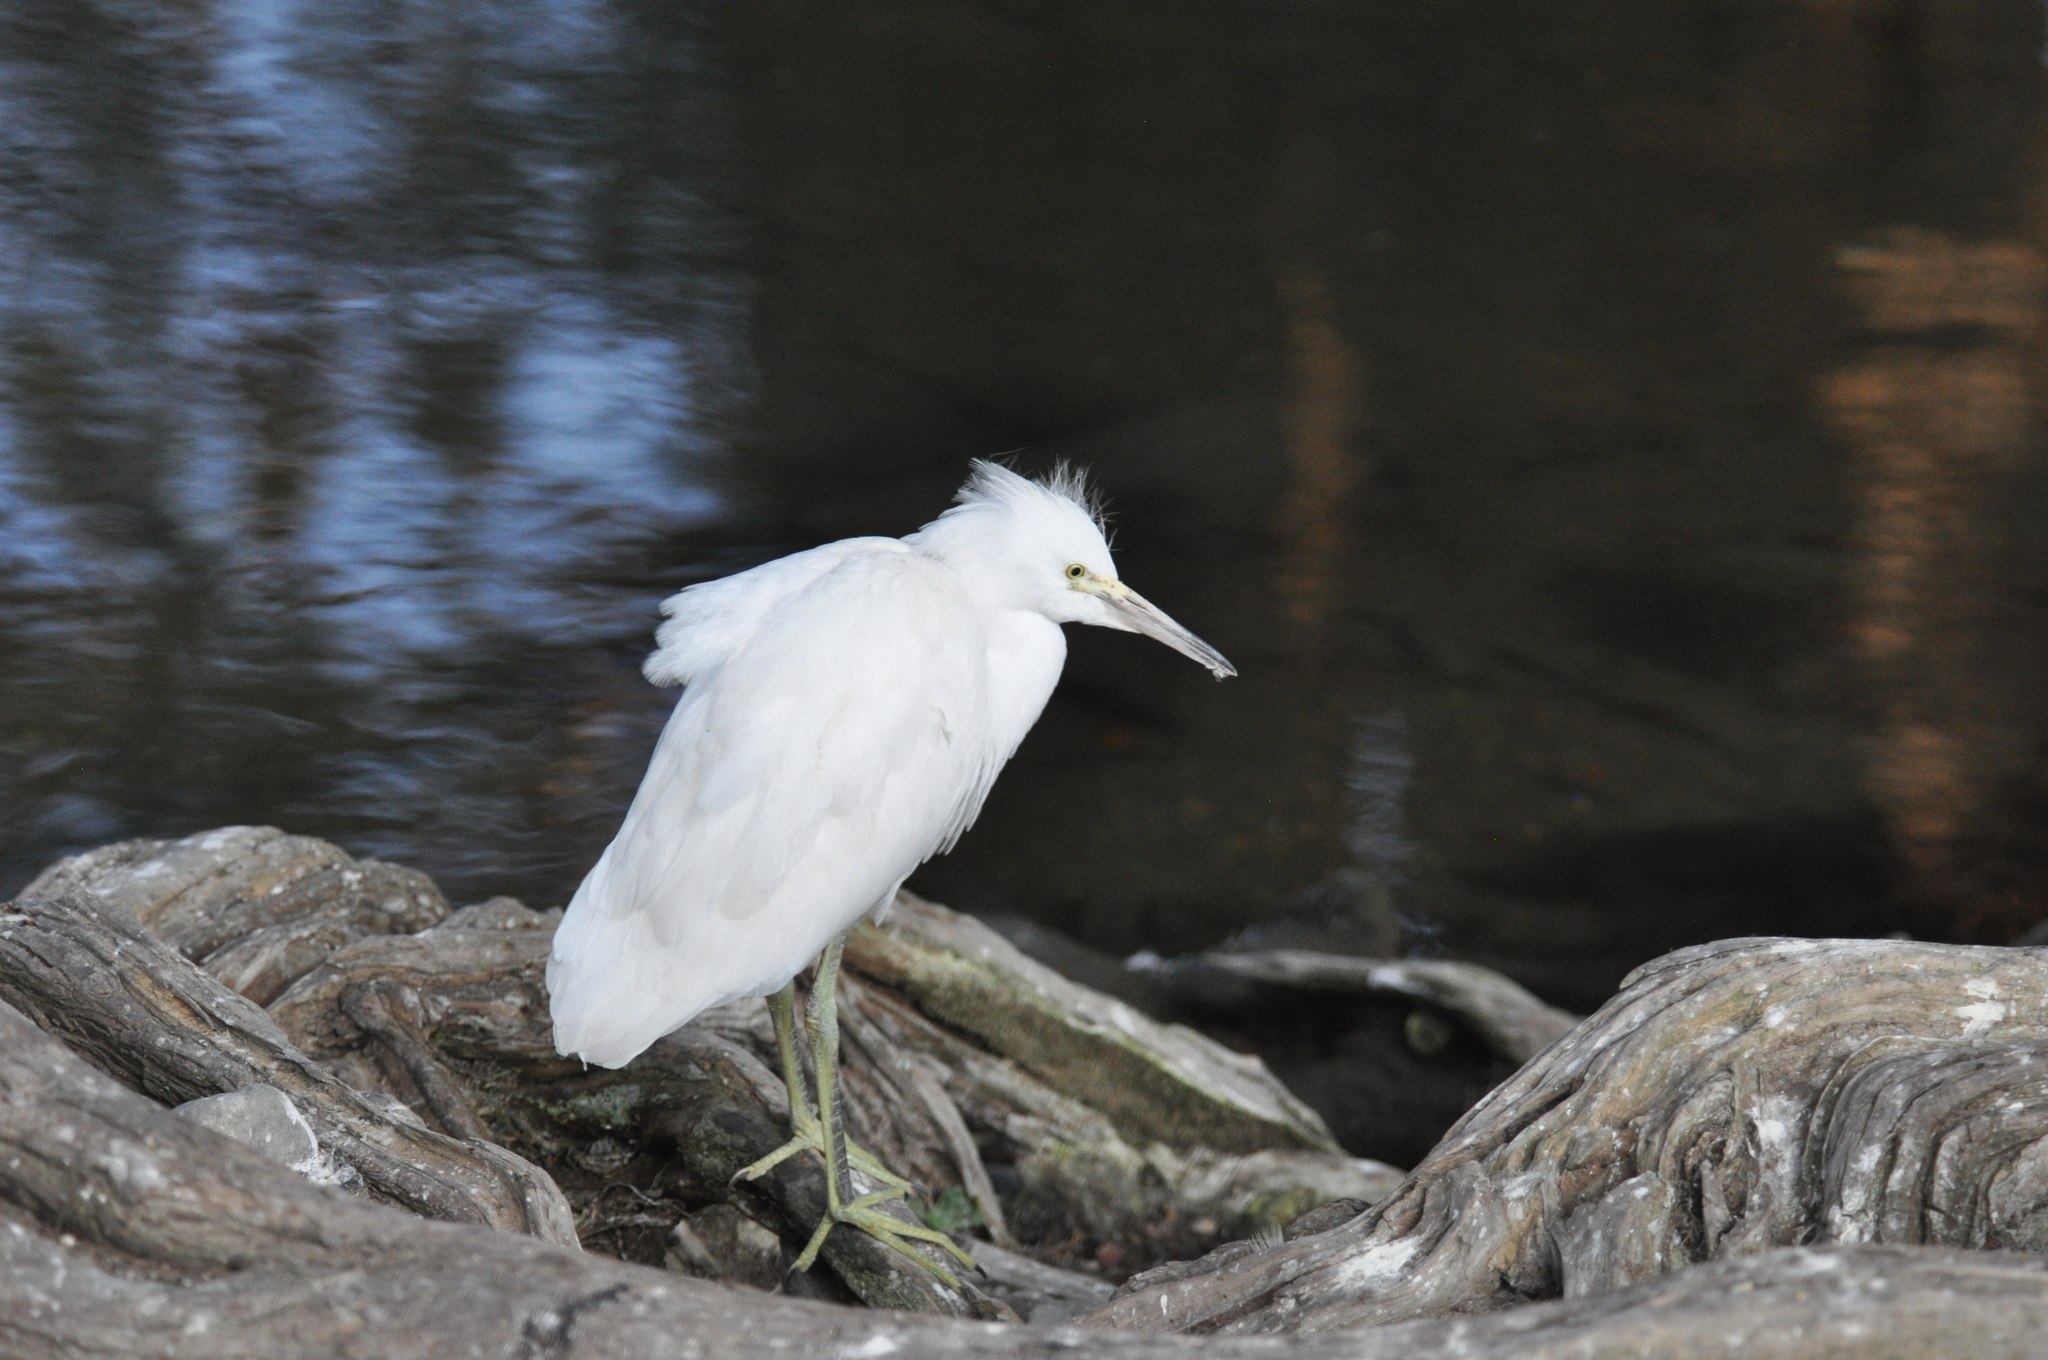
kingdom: Animalia
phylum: Chordata
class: Aves
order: Pelecaniformes
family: Ardeidae
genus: Egretta
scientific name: Egretta caerulea
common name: Little blue heron
